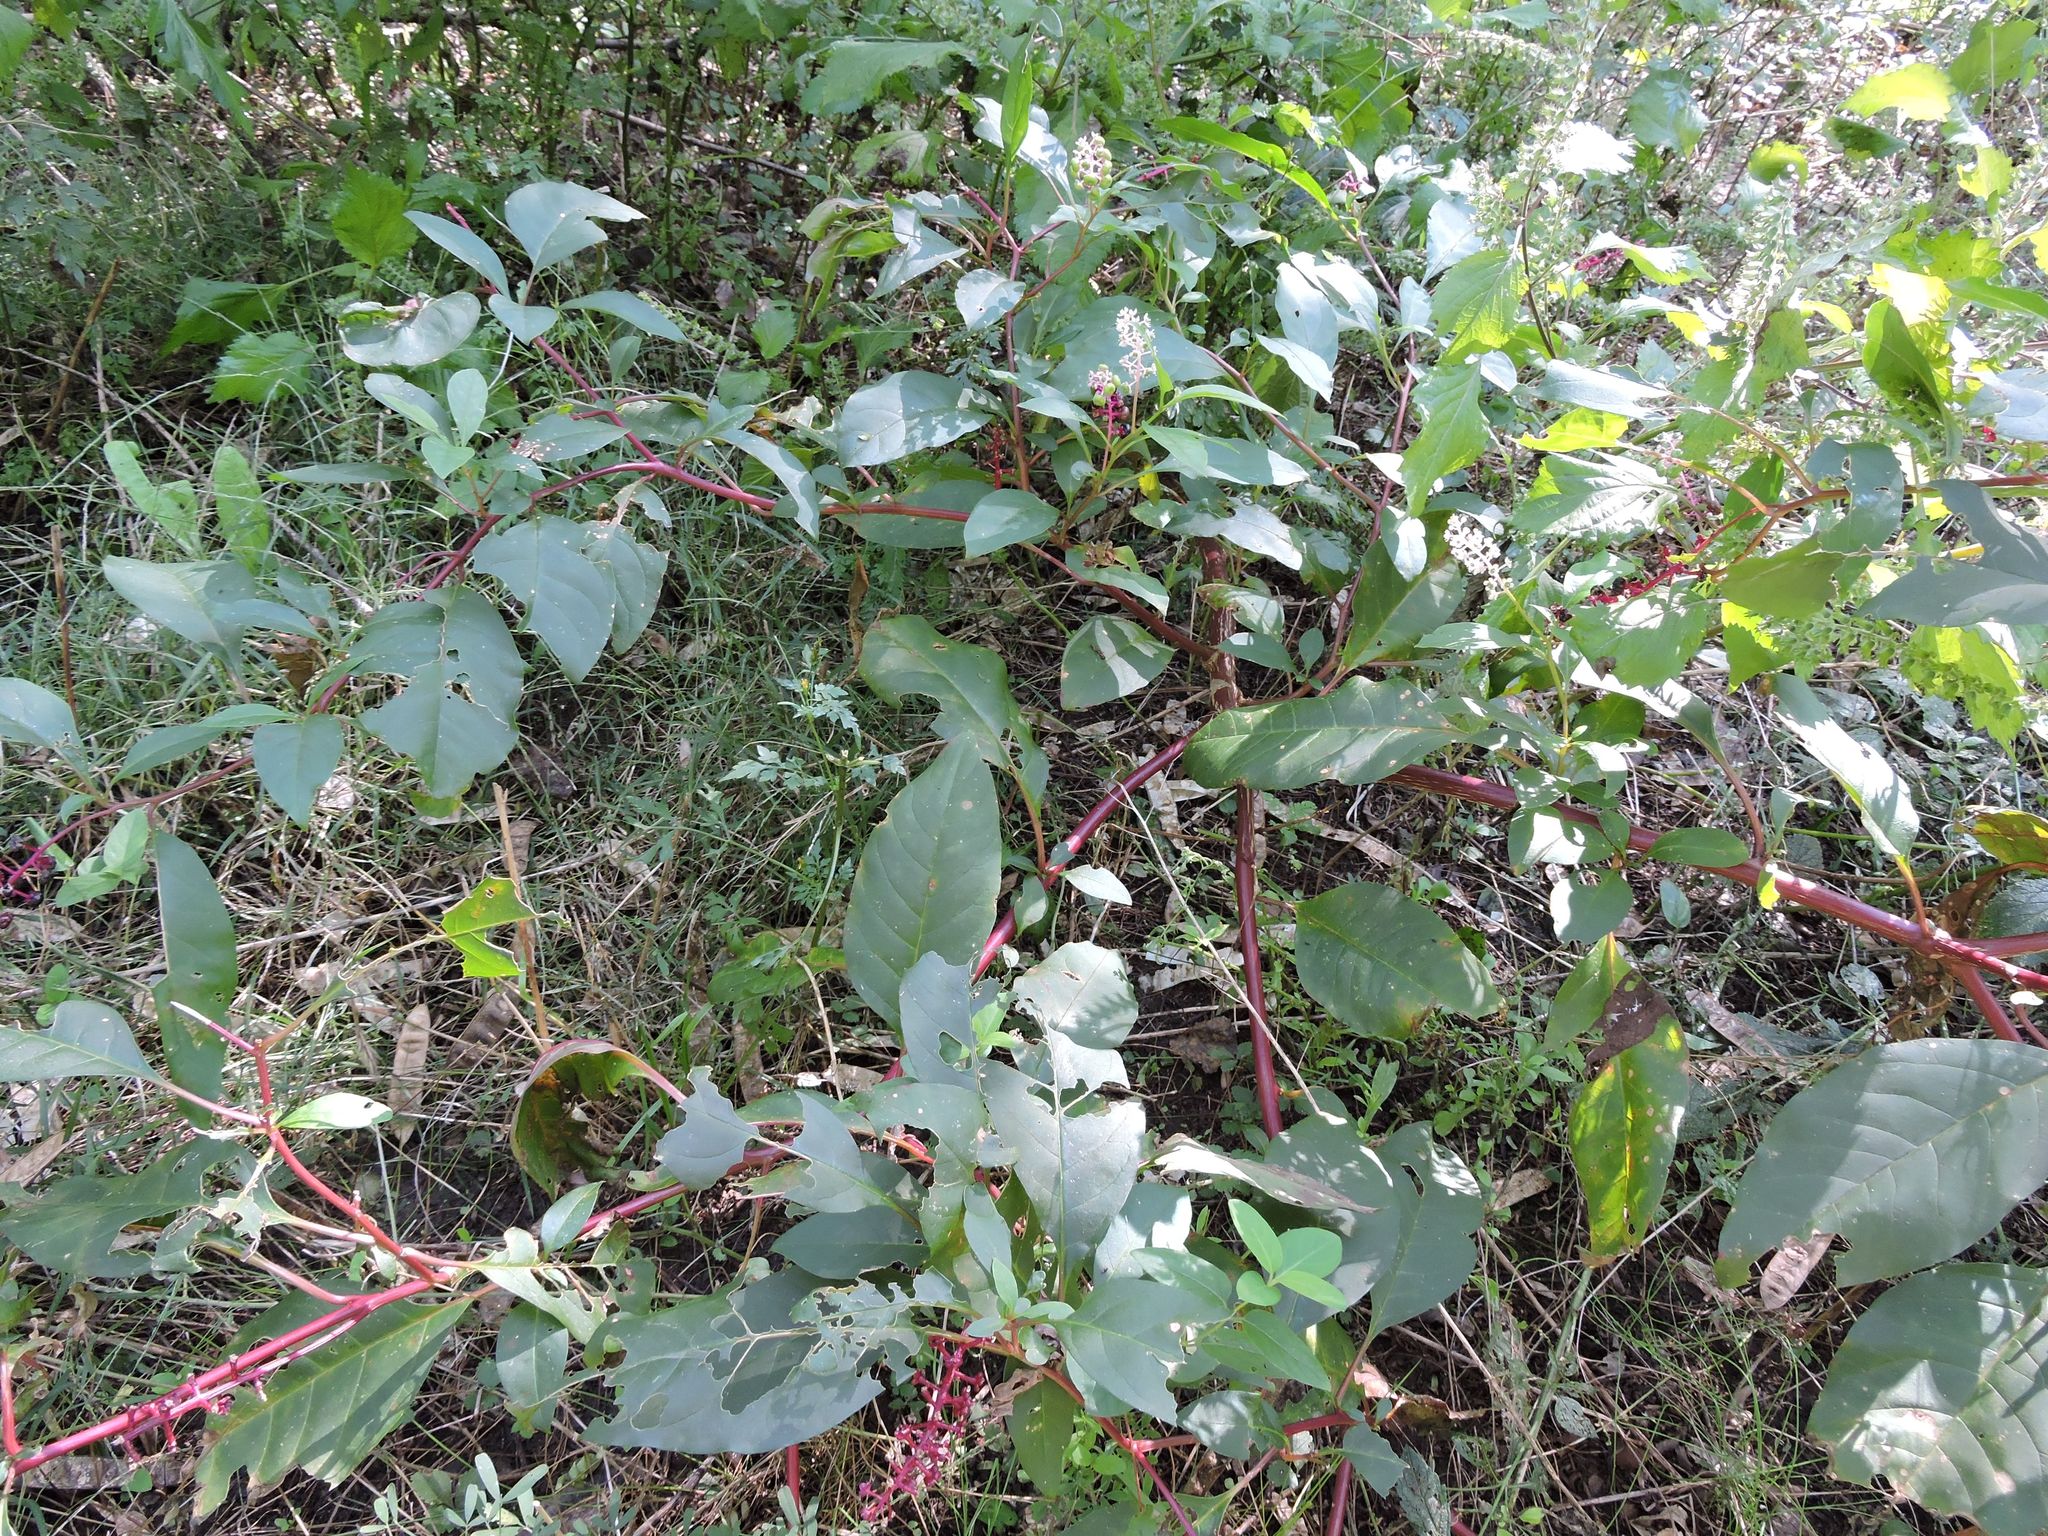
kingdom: Plantae
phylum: Tracheophyta
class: Magnoliopsida
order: Caryophyllales
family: Phytolaccaceae
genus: Phytolacca
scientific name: Phytolacca americana
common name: American pokeweed
